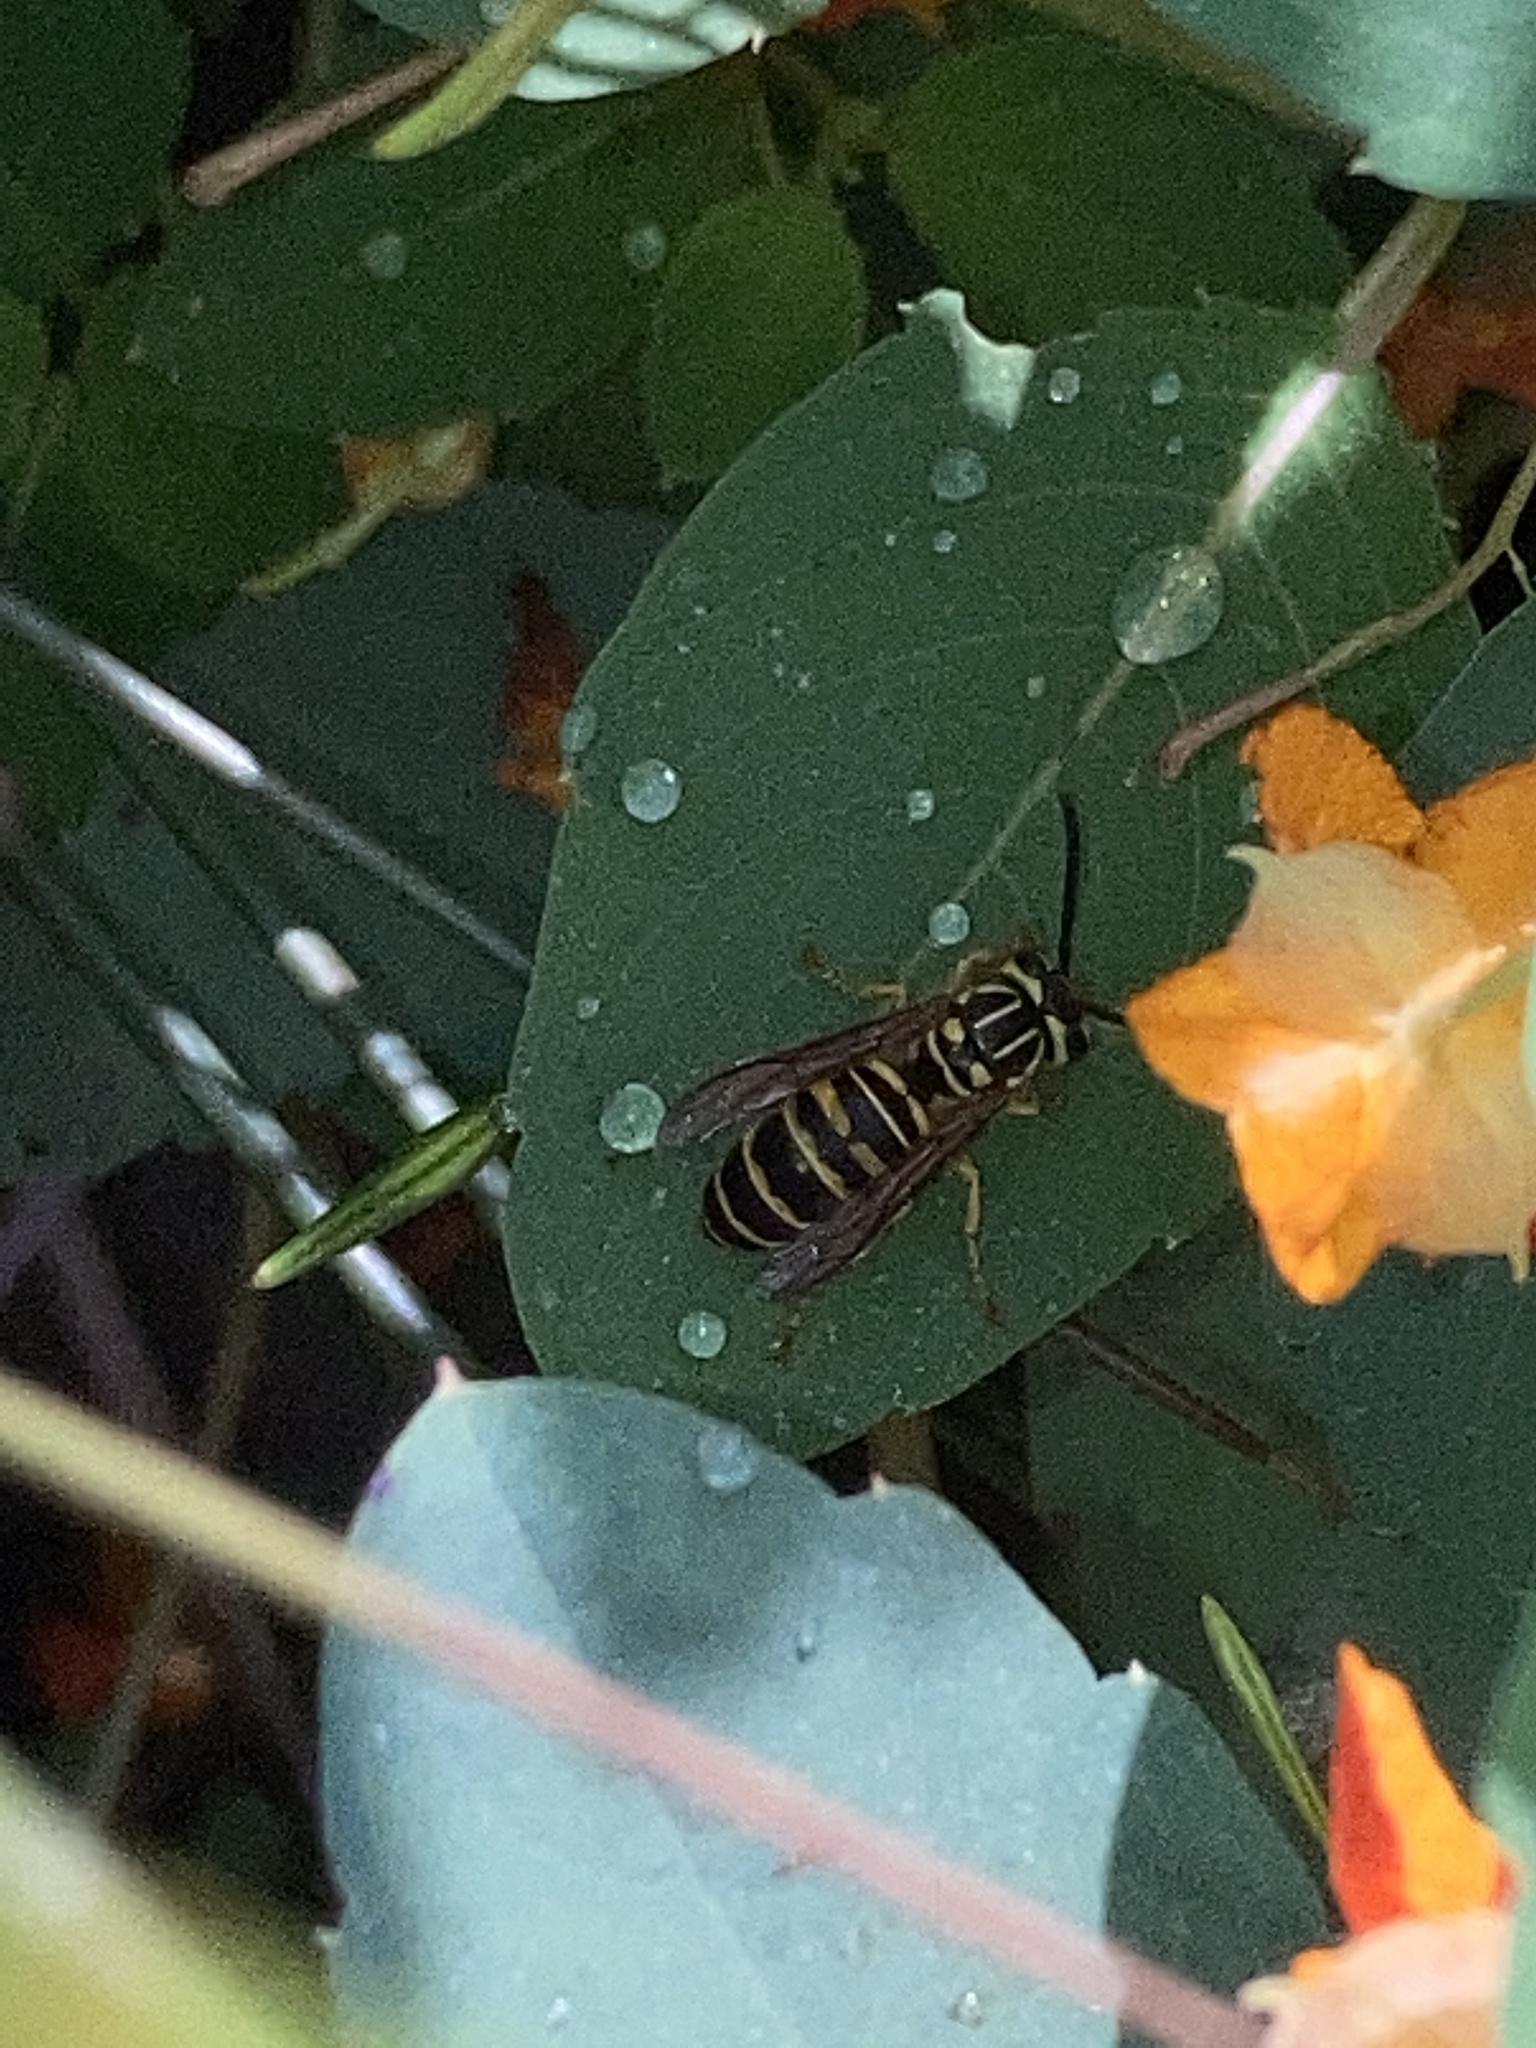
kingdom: Animalia
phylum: Arthropoda
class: Insecta
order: Hymenoptera
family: Vespidae
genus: Vespula
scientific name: Vespula squamosa
